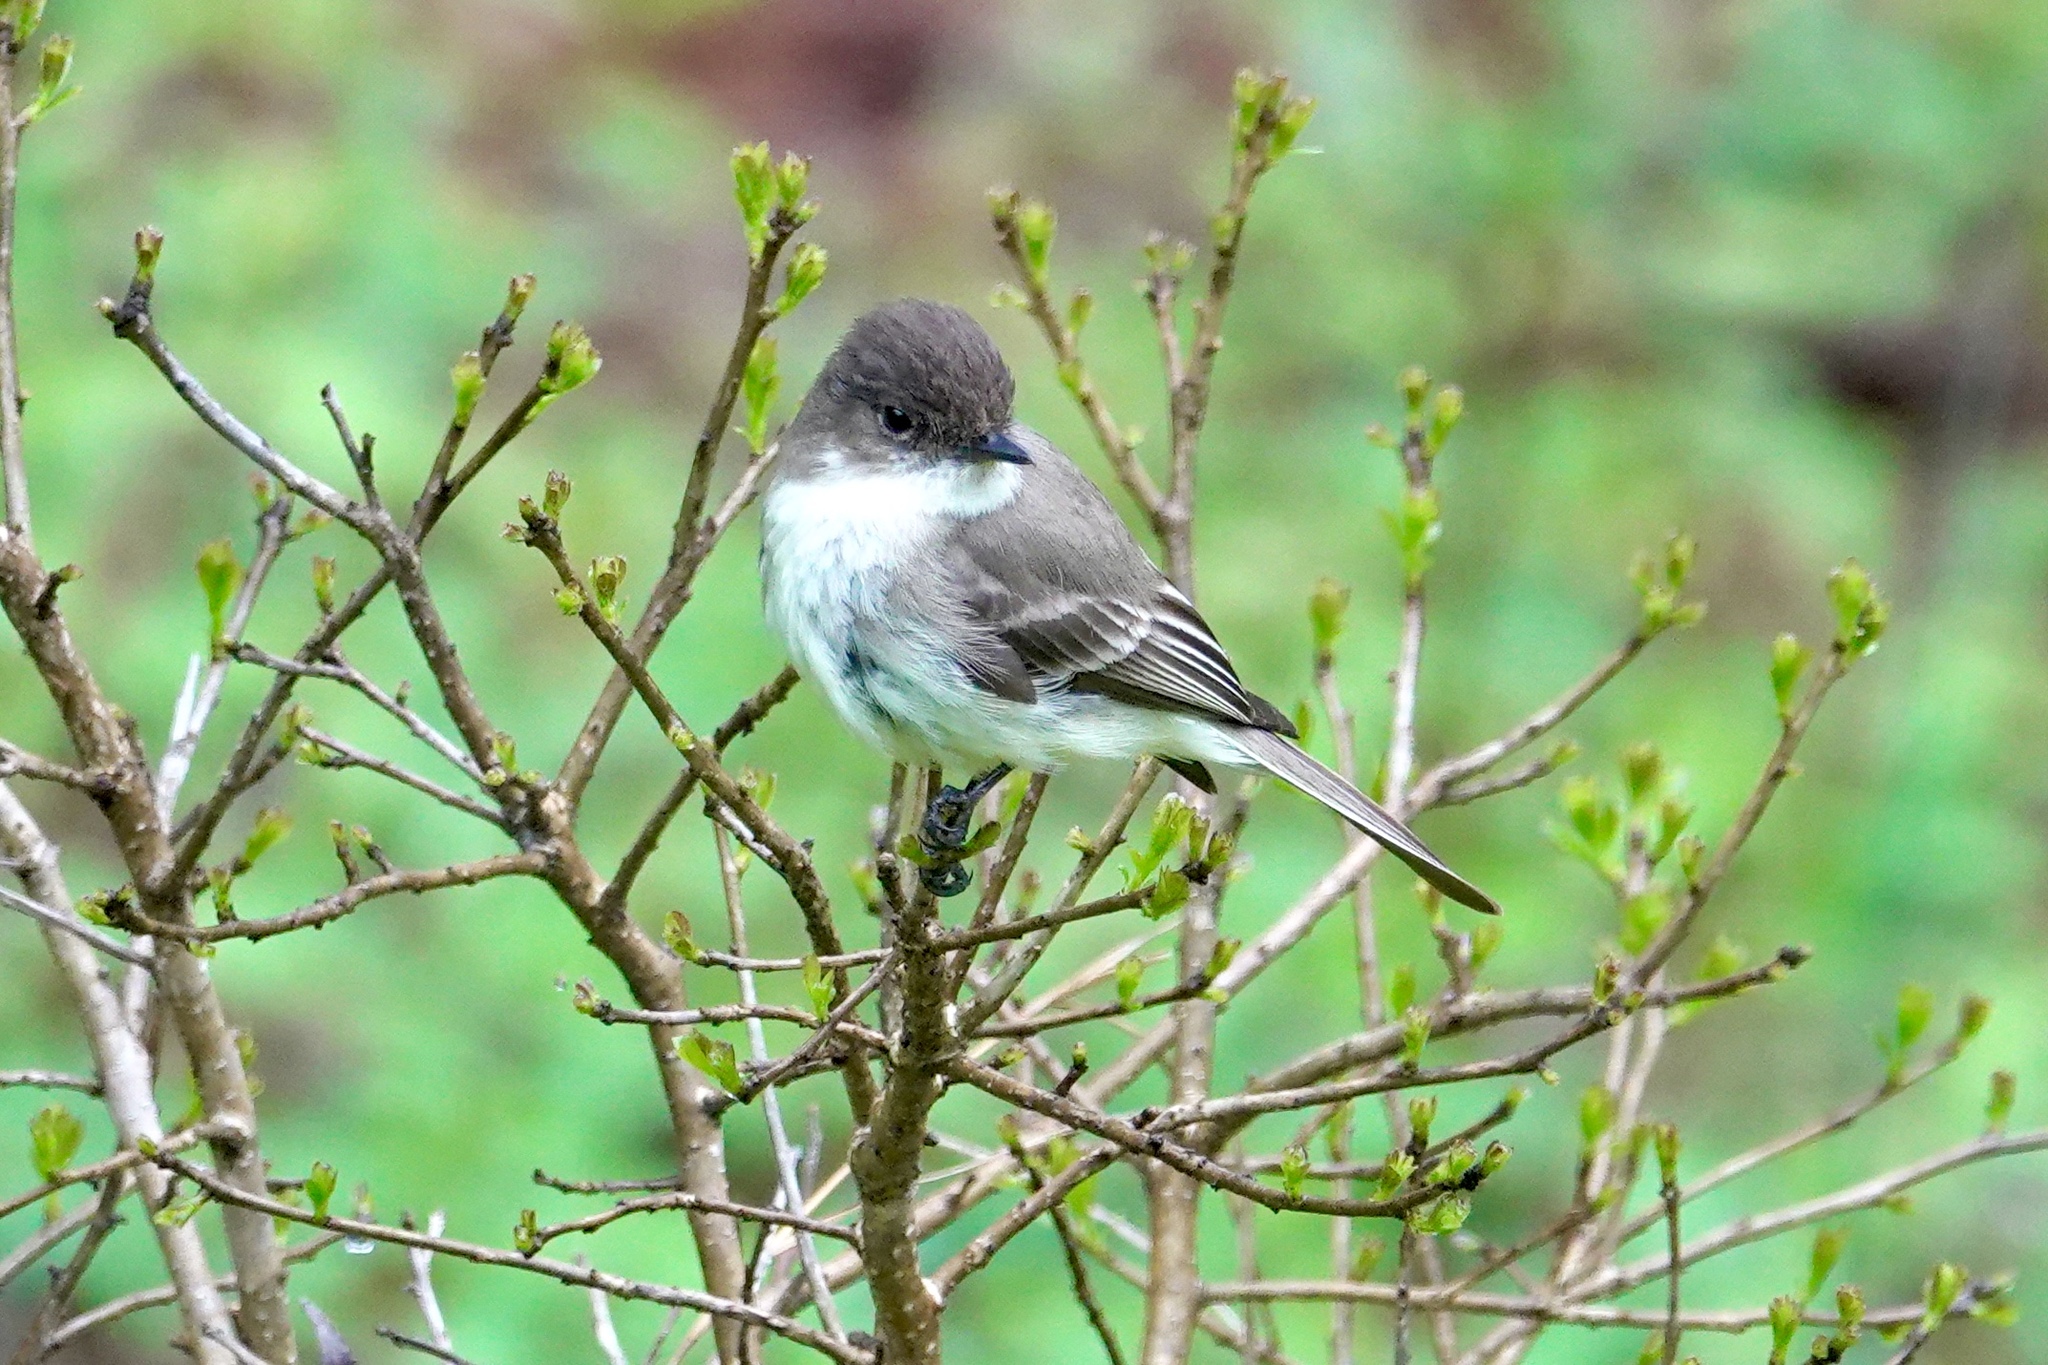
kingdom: Animalia
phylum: Chordata
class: Aves
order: Passeriformes
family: Tyrannidae
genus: Sayornis
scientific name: Sayornis phoebe
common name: Eastern phoebe
